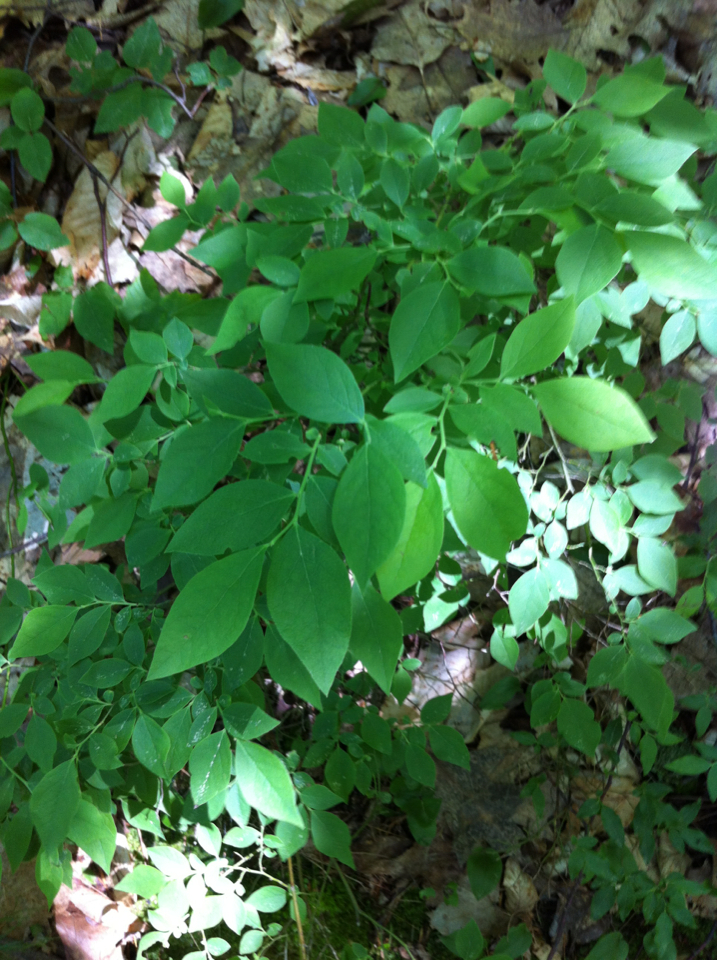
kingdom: Plantae
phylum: Tracheophyta
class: Magnoliopsida
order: Ericales
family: Ericaceae
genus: Vaccinium
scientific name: Vaccinium angustifolium
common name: Early lowbush blueberry
